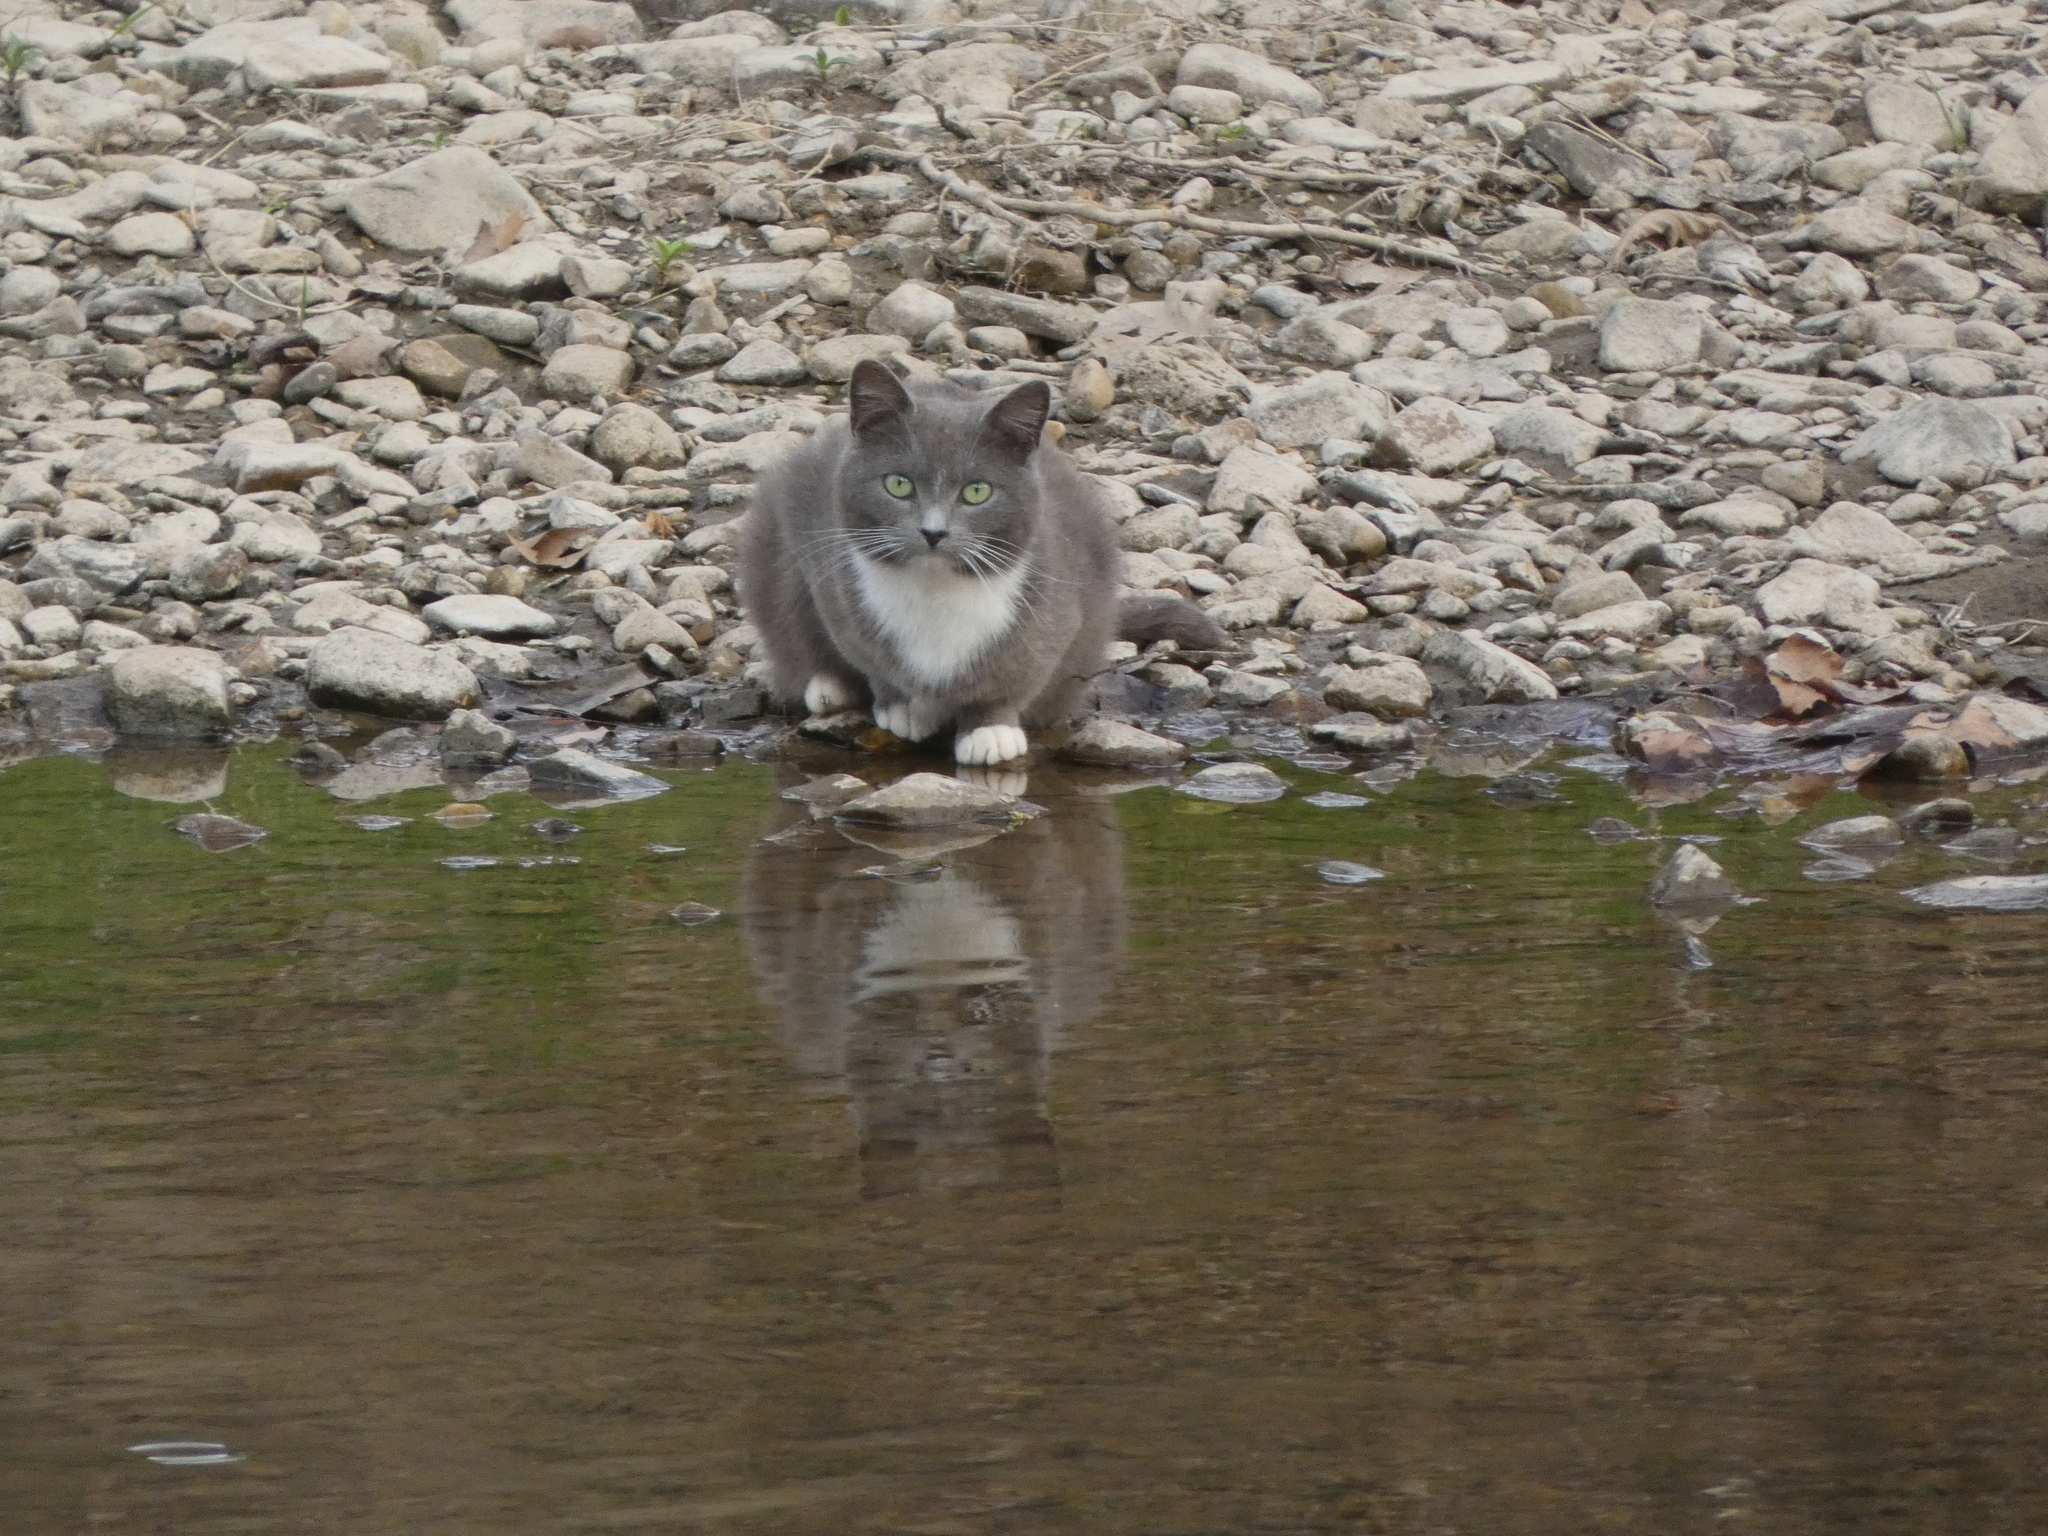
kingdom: Animalia
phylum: Chordata
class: Mammalia
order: Carnivora
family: Felidae
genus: Felis
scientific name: Felis catus
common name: Domestic cat
